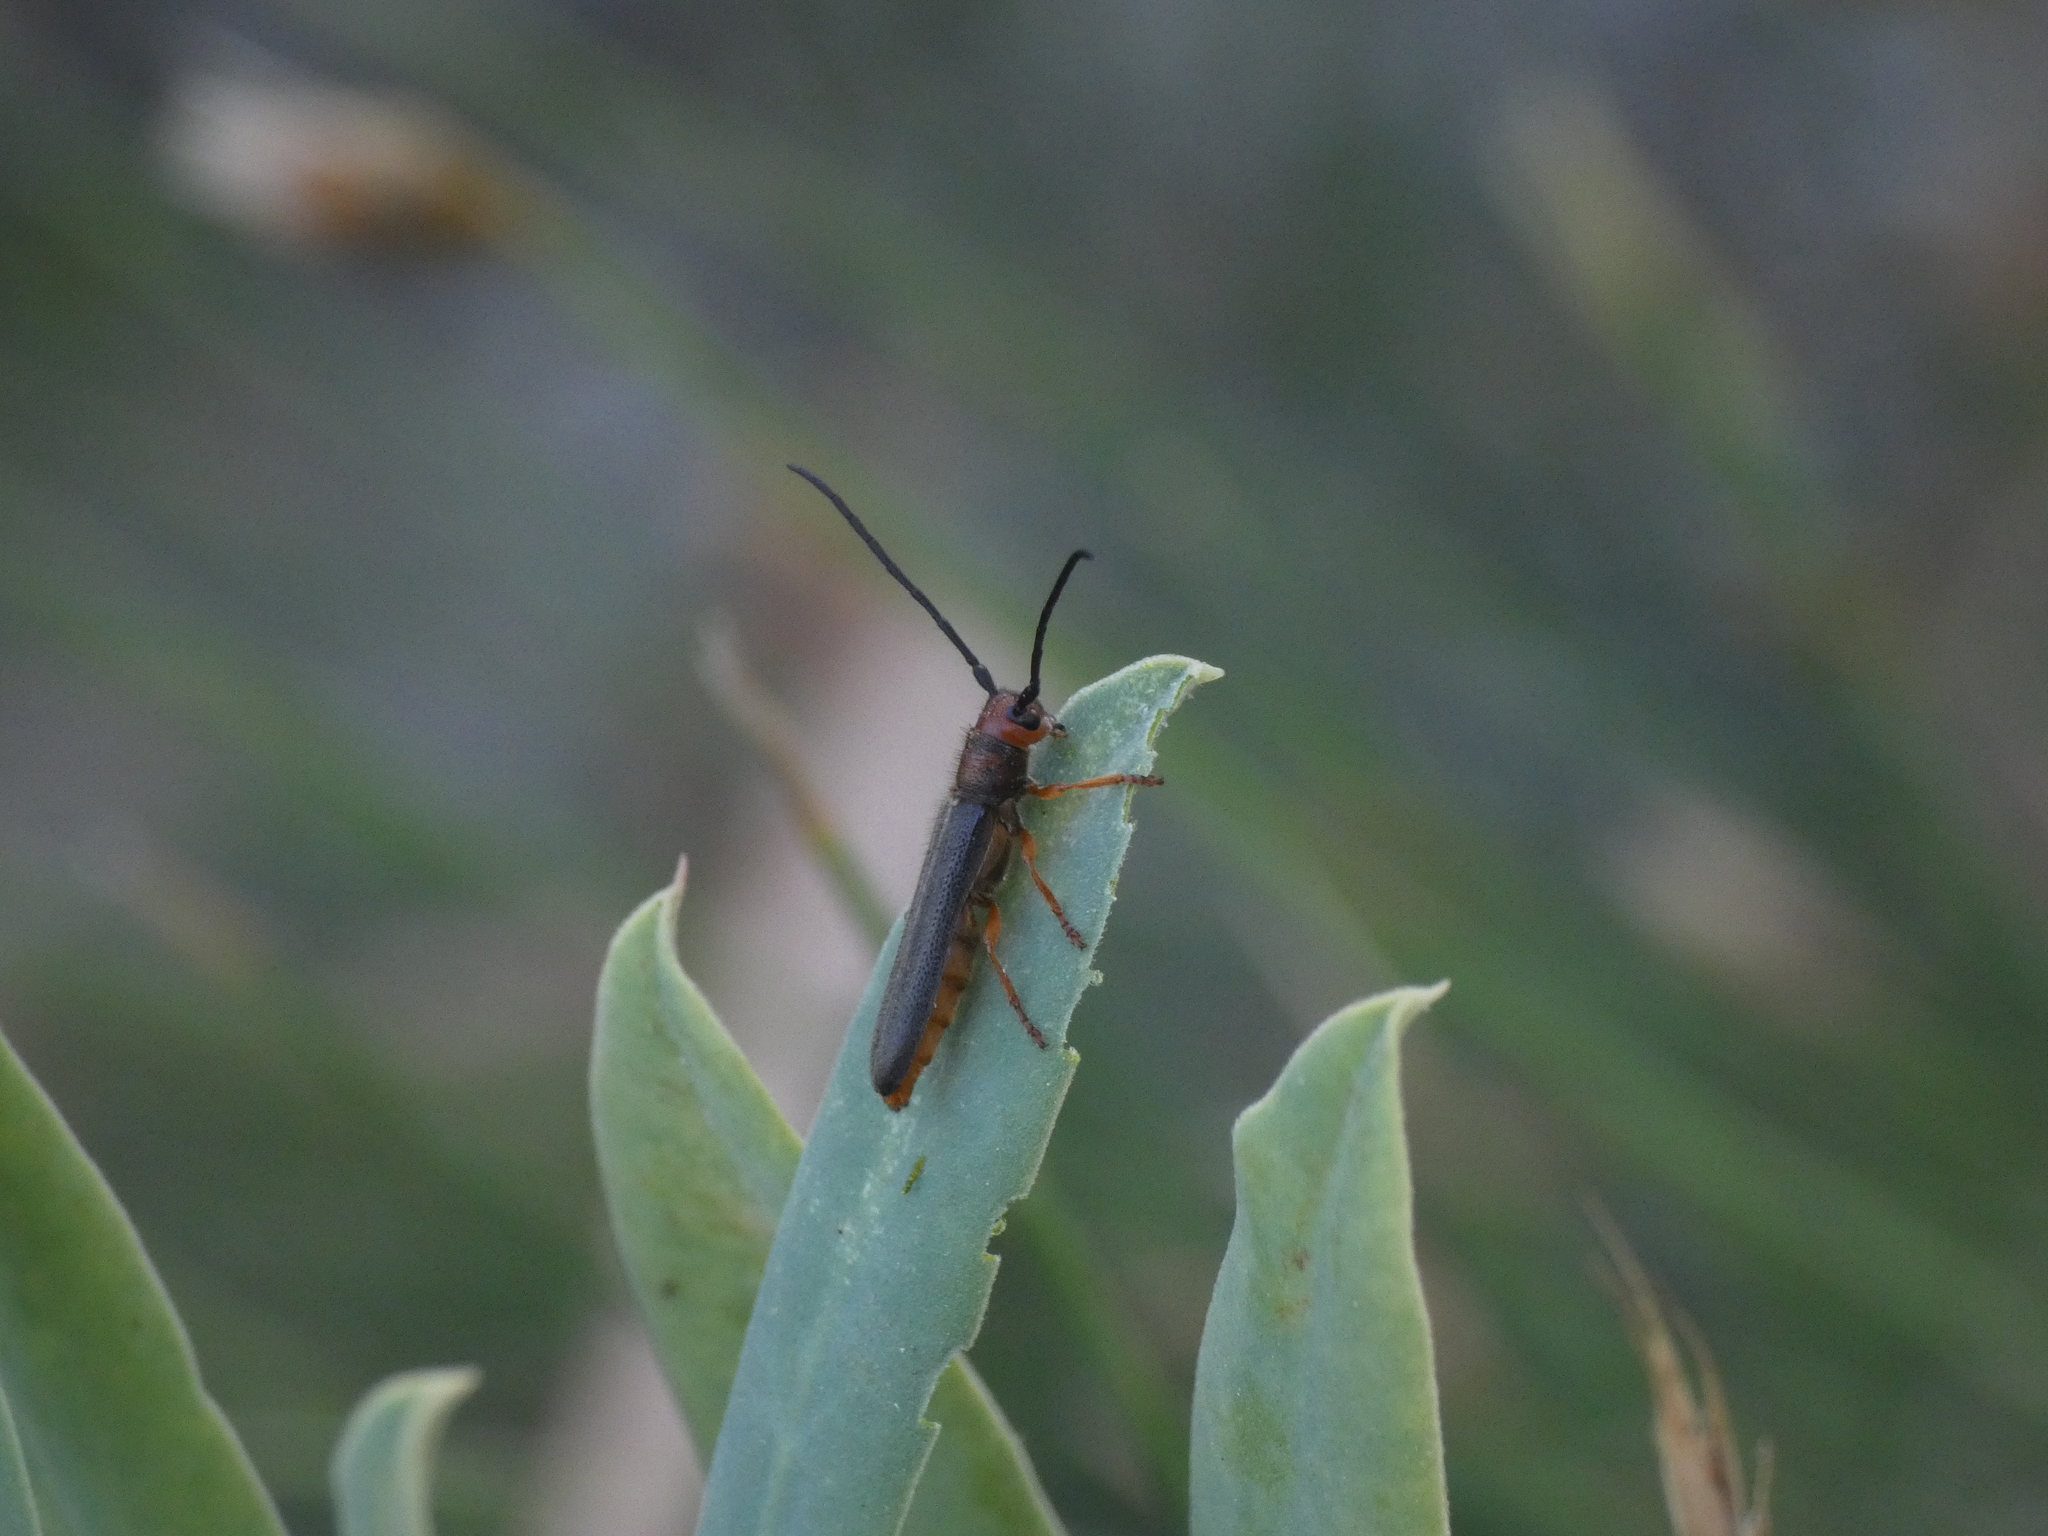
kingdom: Animalia
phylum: Arthropoda
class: Insecta
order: Coleoptera
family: Cerambycidae
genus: Oberea
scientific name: Oberea erythrocephala
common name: Leafy spurge stem boring beetle
